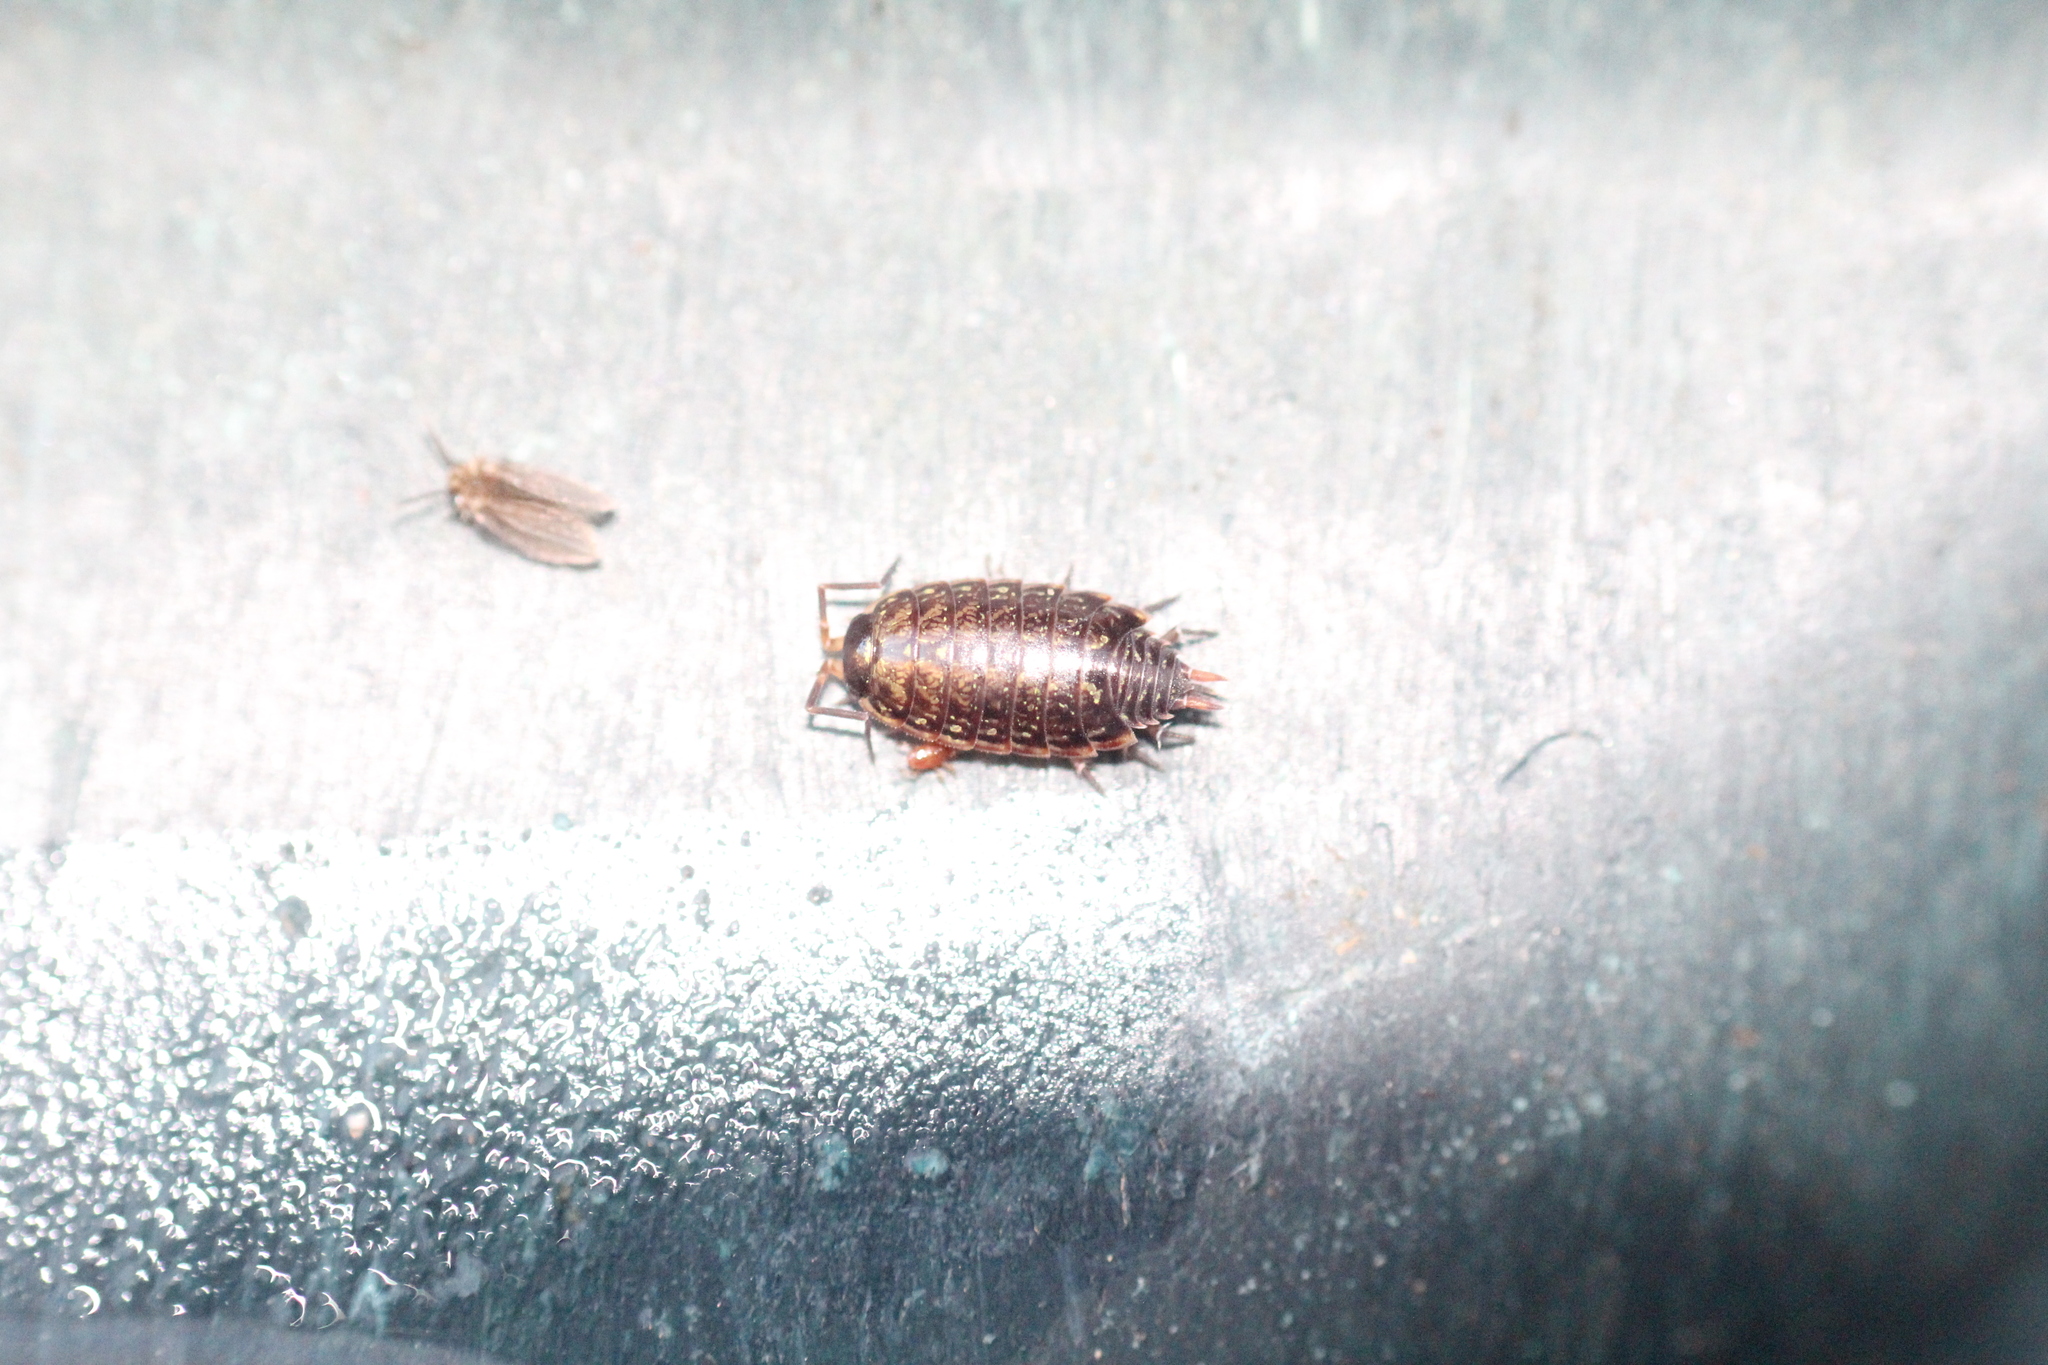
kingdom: Animalia
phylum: Arthropoda
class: Malacostraca
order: Isopoda
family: Philosciidae
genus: Philoscia
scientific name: Philoscia muscorum
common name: Common striped woodlouse
